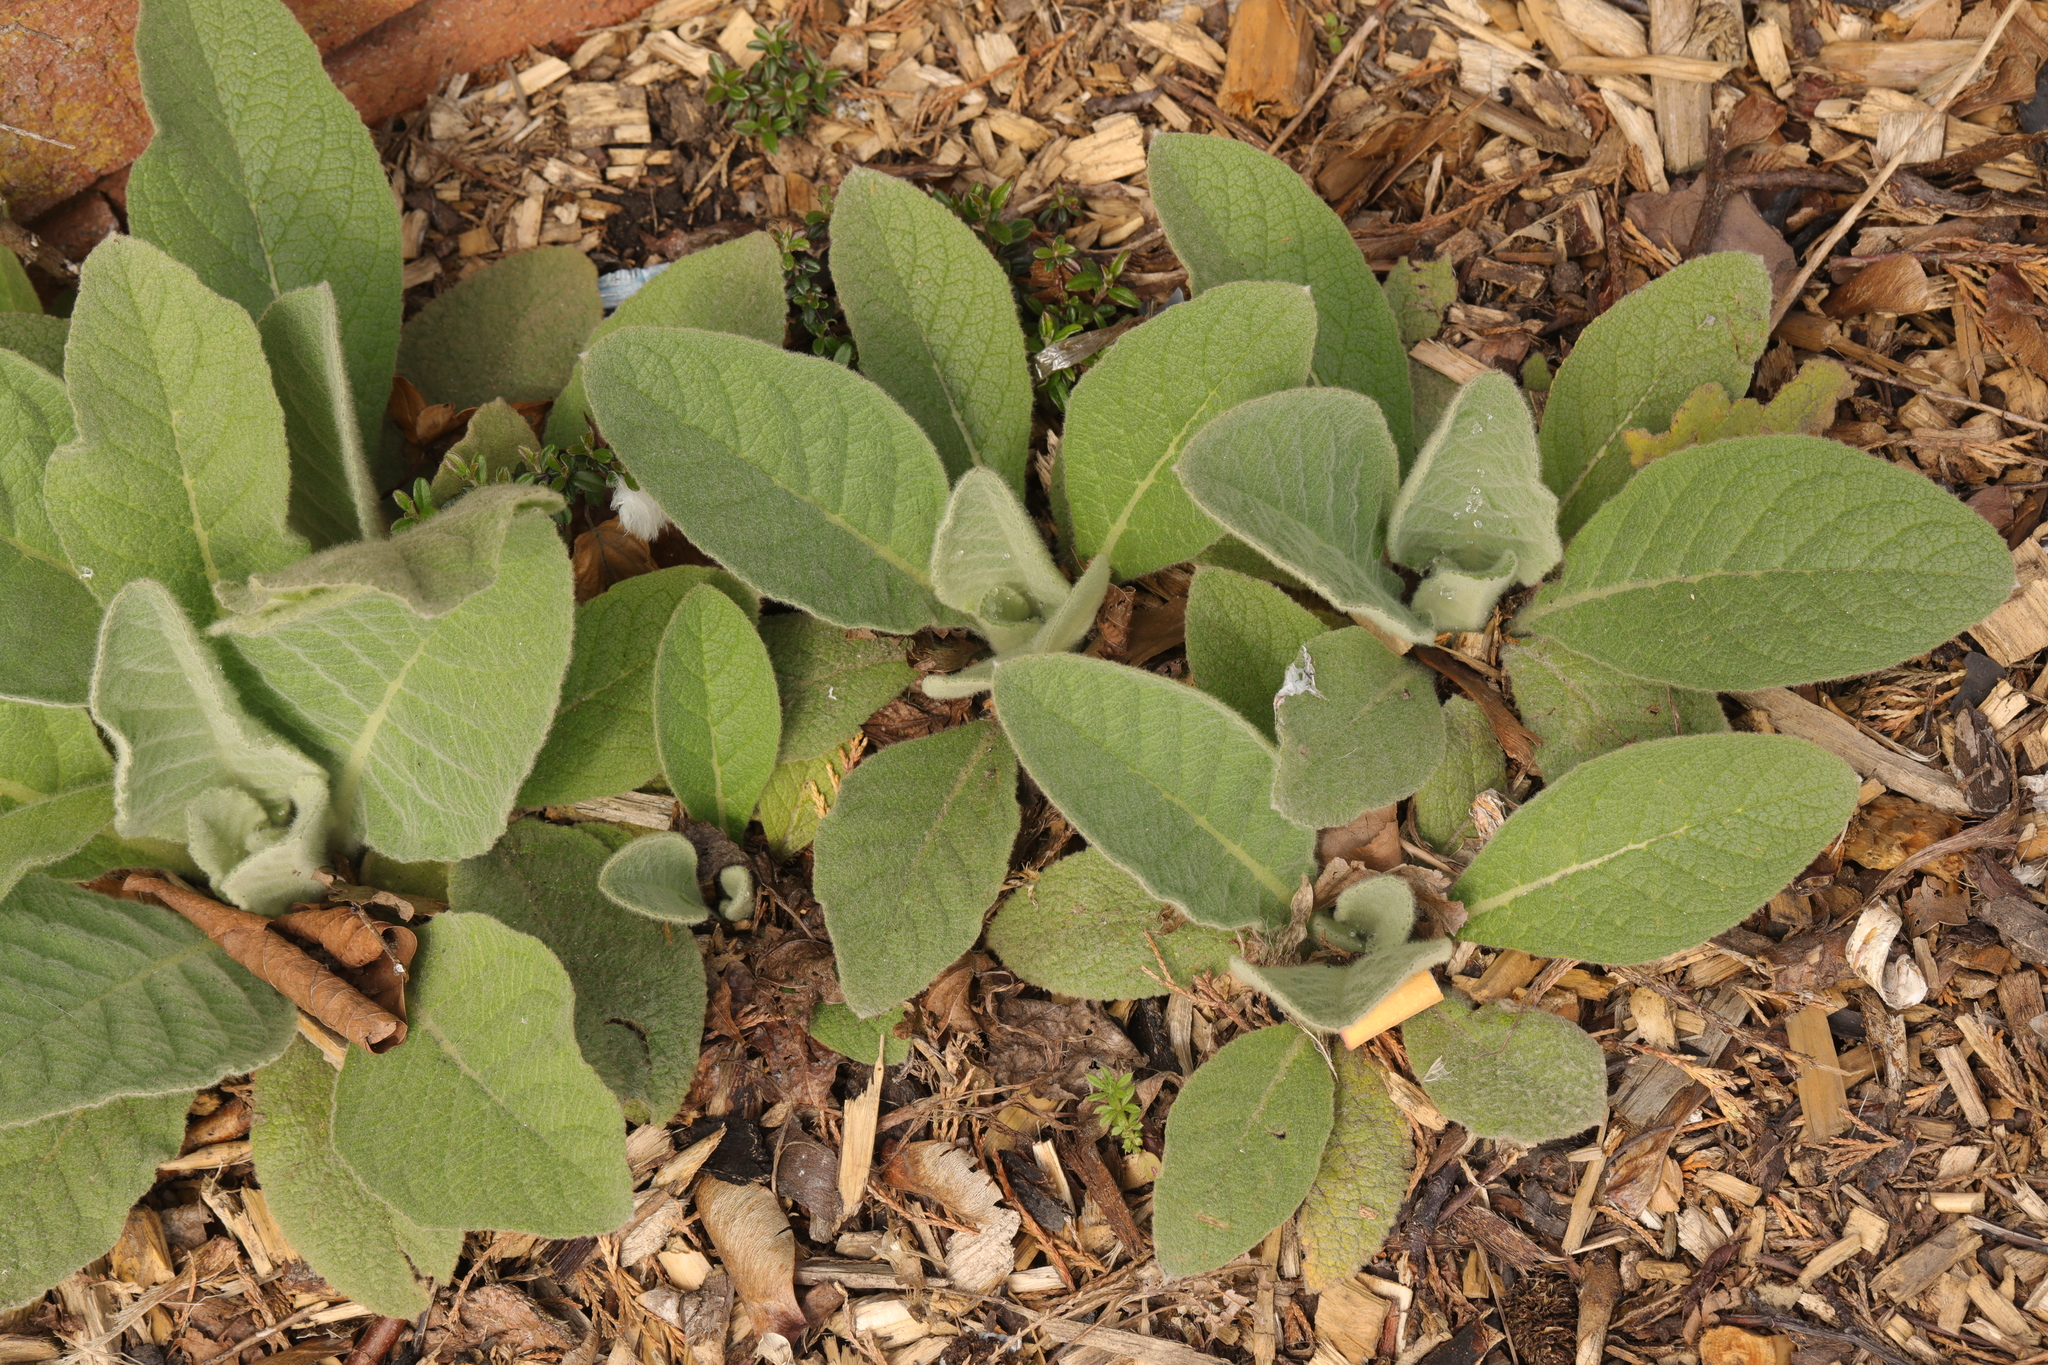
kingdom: Plantae
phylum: Tracheophyta
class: Magnoliopsida
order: Lamiales
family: Scrophulariaceae
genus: Verbascum
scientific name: Verbascum thapsus
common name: Common mullein
